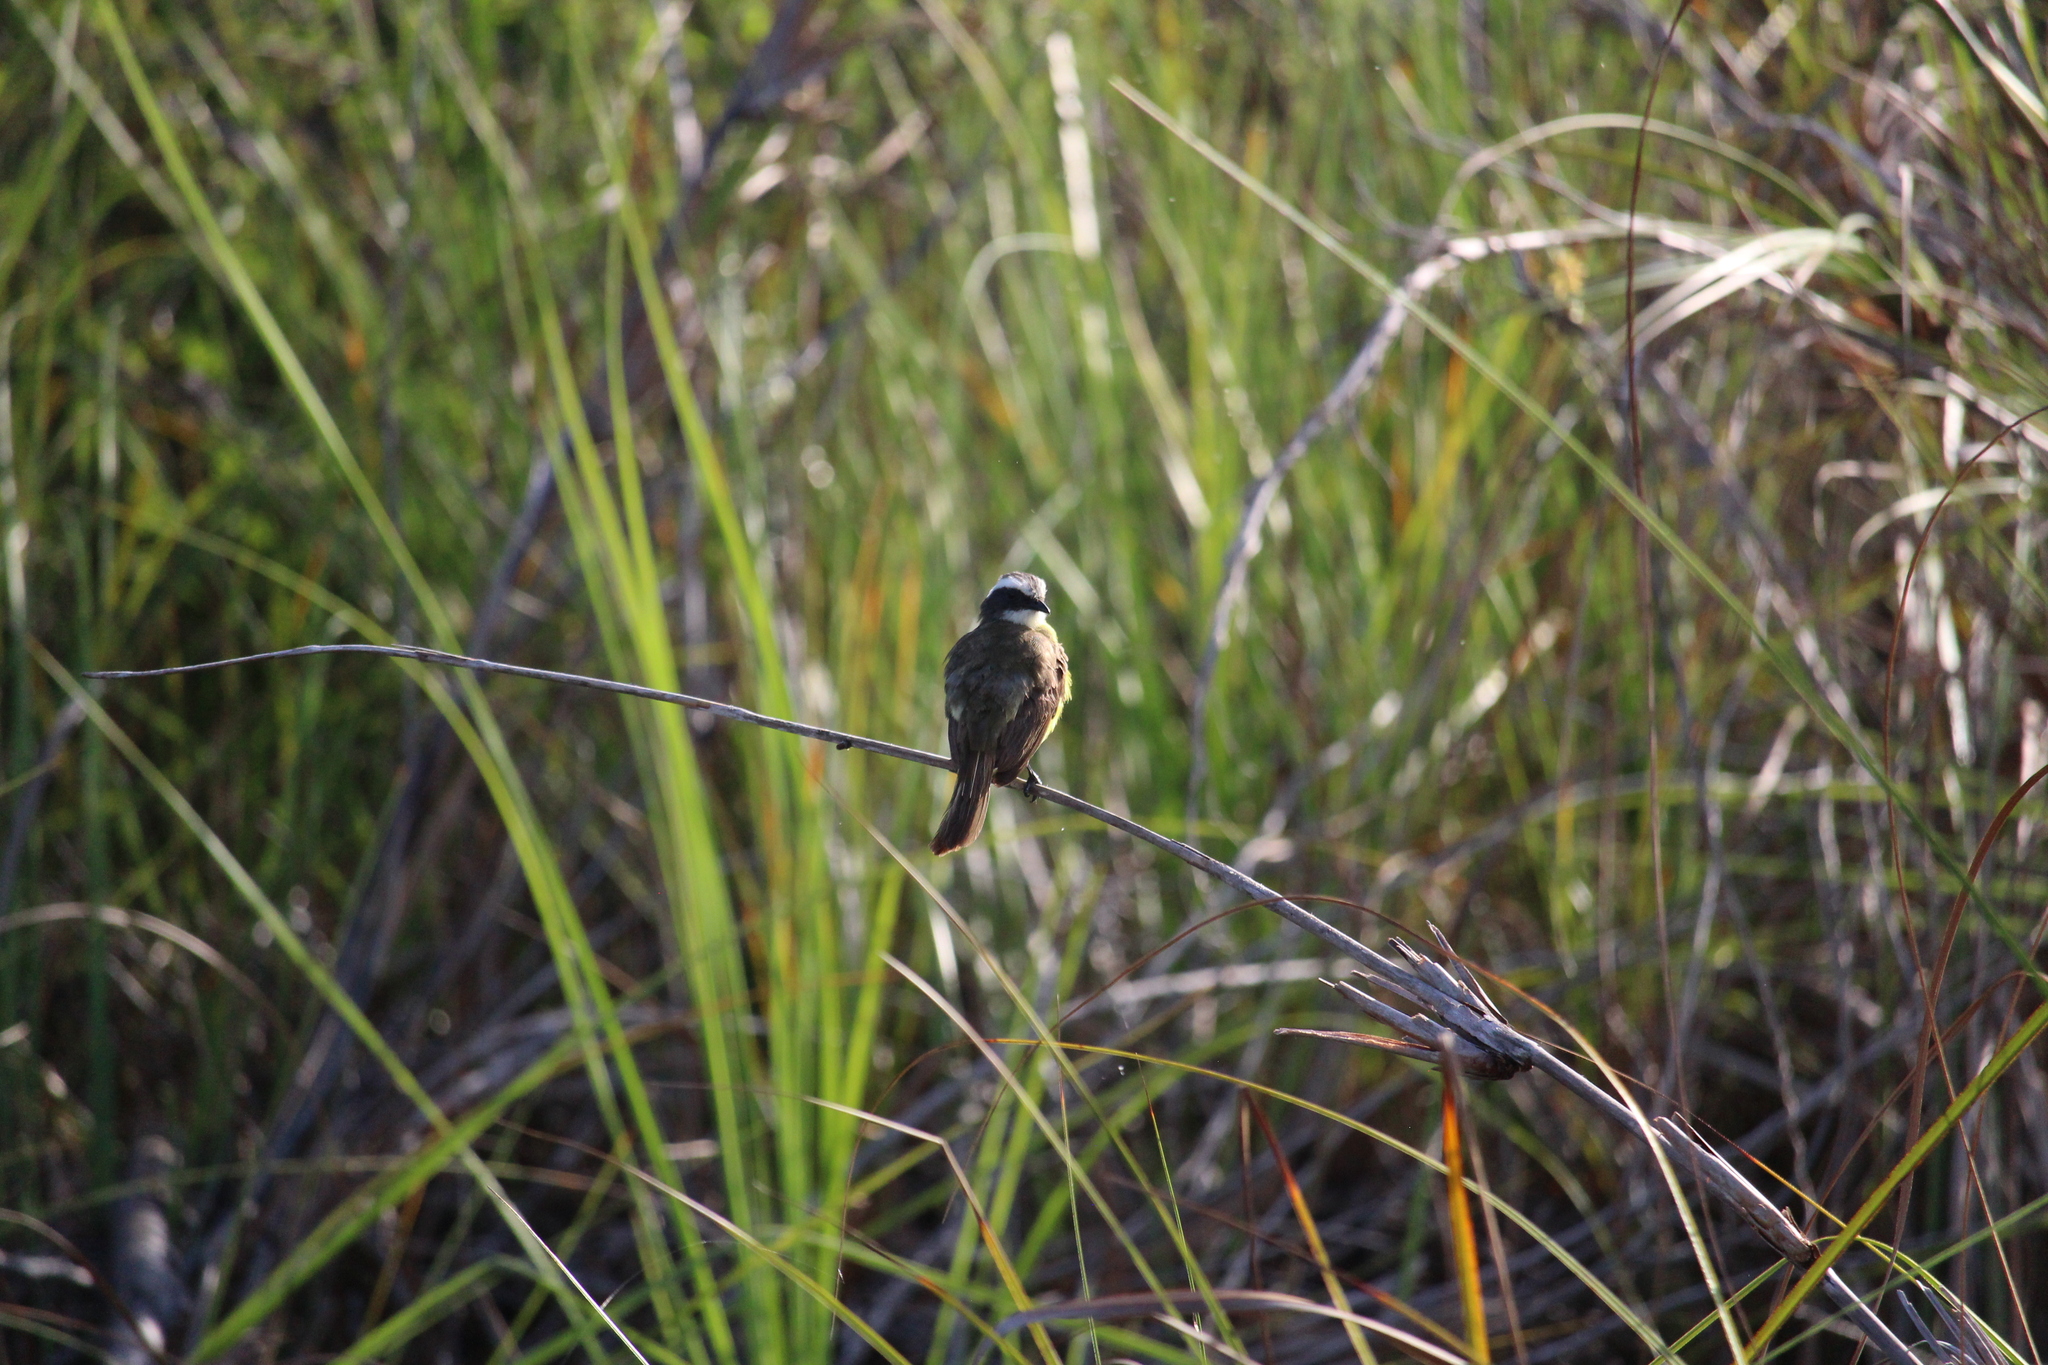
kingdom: Animalia
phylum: Chordata
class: Aves
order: Passeriformes
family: Tyrannidae
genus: Myiozetetes
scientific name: Myiozetetes similis
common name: Social flycatcher
